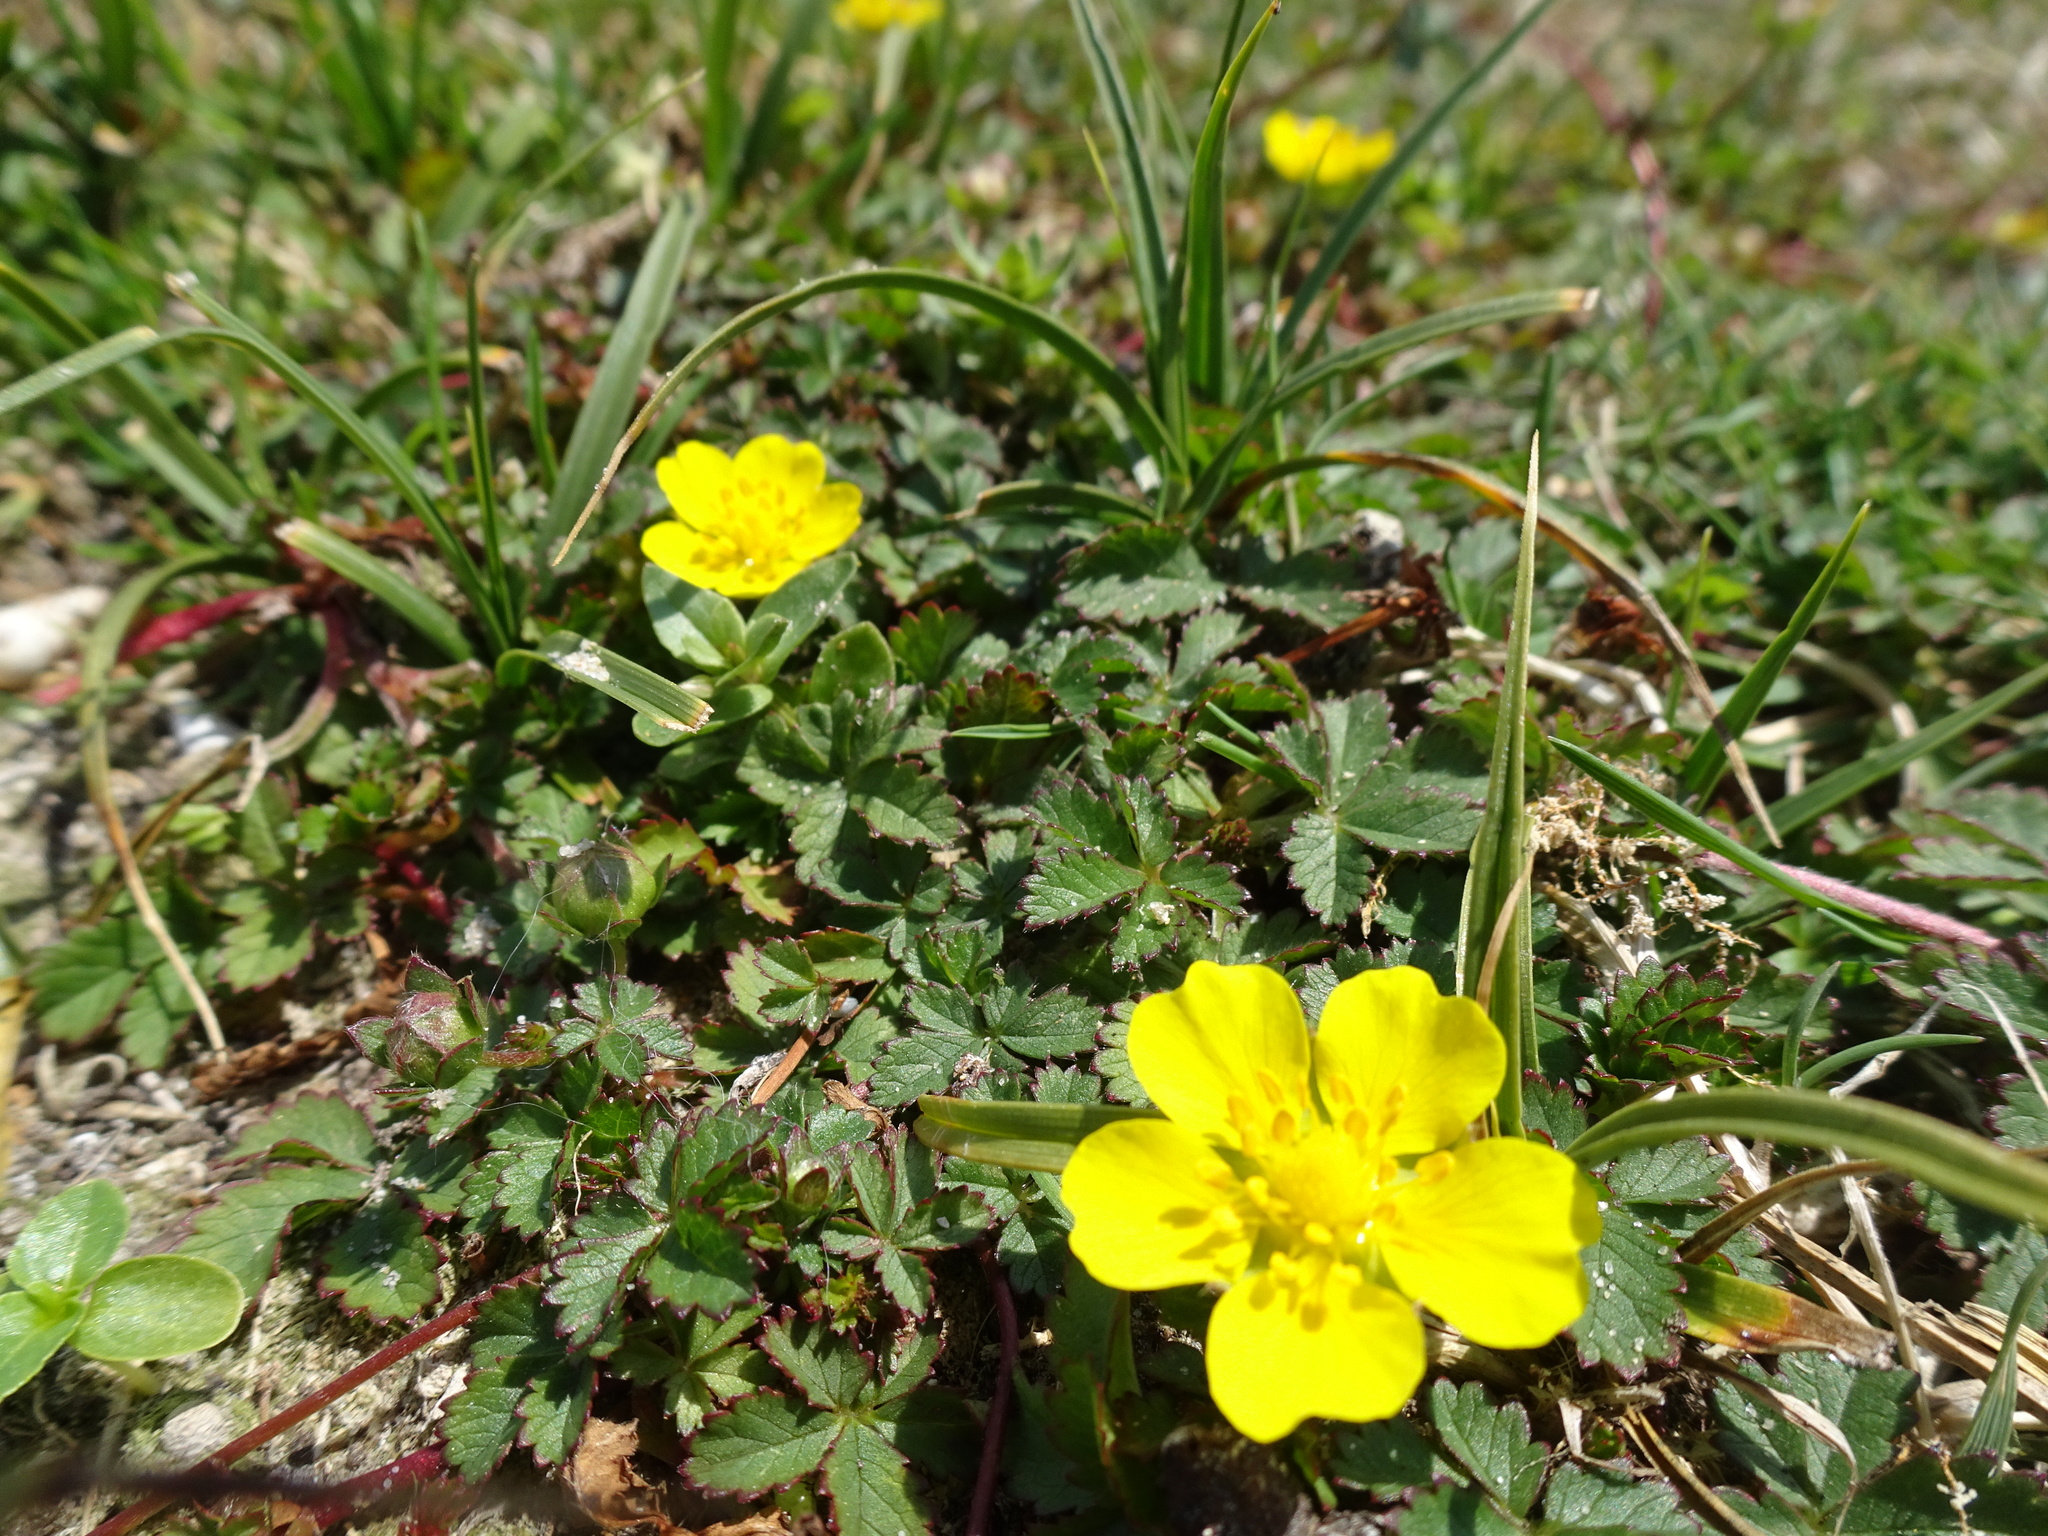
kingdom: Plantae
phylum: Tracheophyta
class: Magnoliopsida
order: Rosales
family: Rosaceae
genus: Potentilla
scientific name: Potentilla reptans
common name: Creeping cinquefoil
